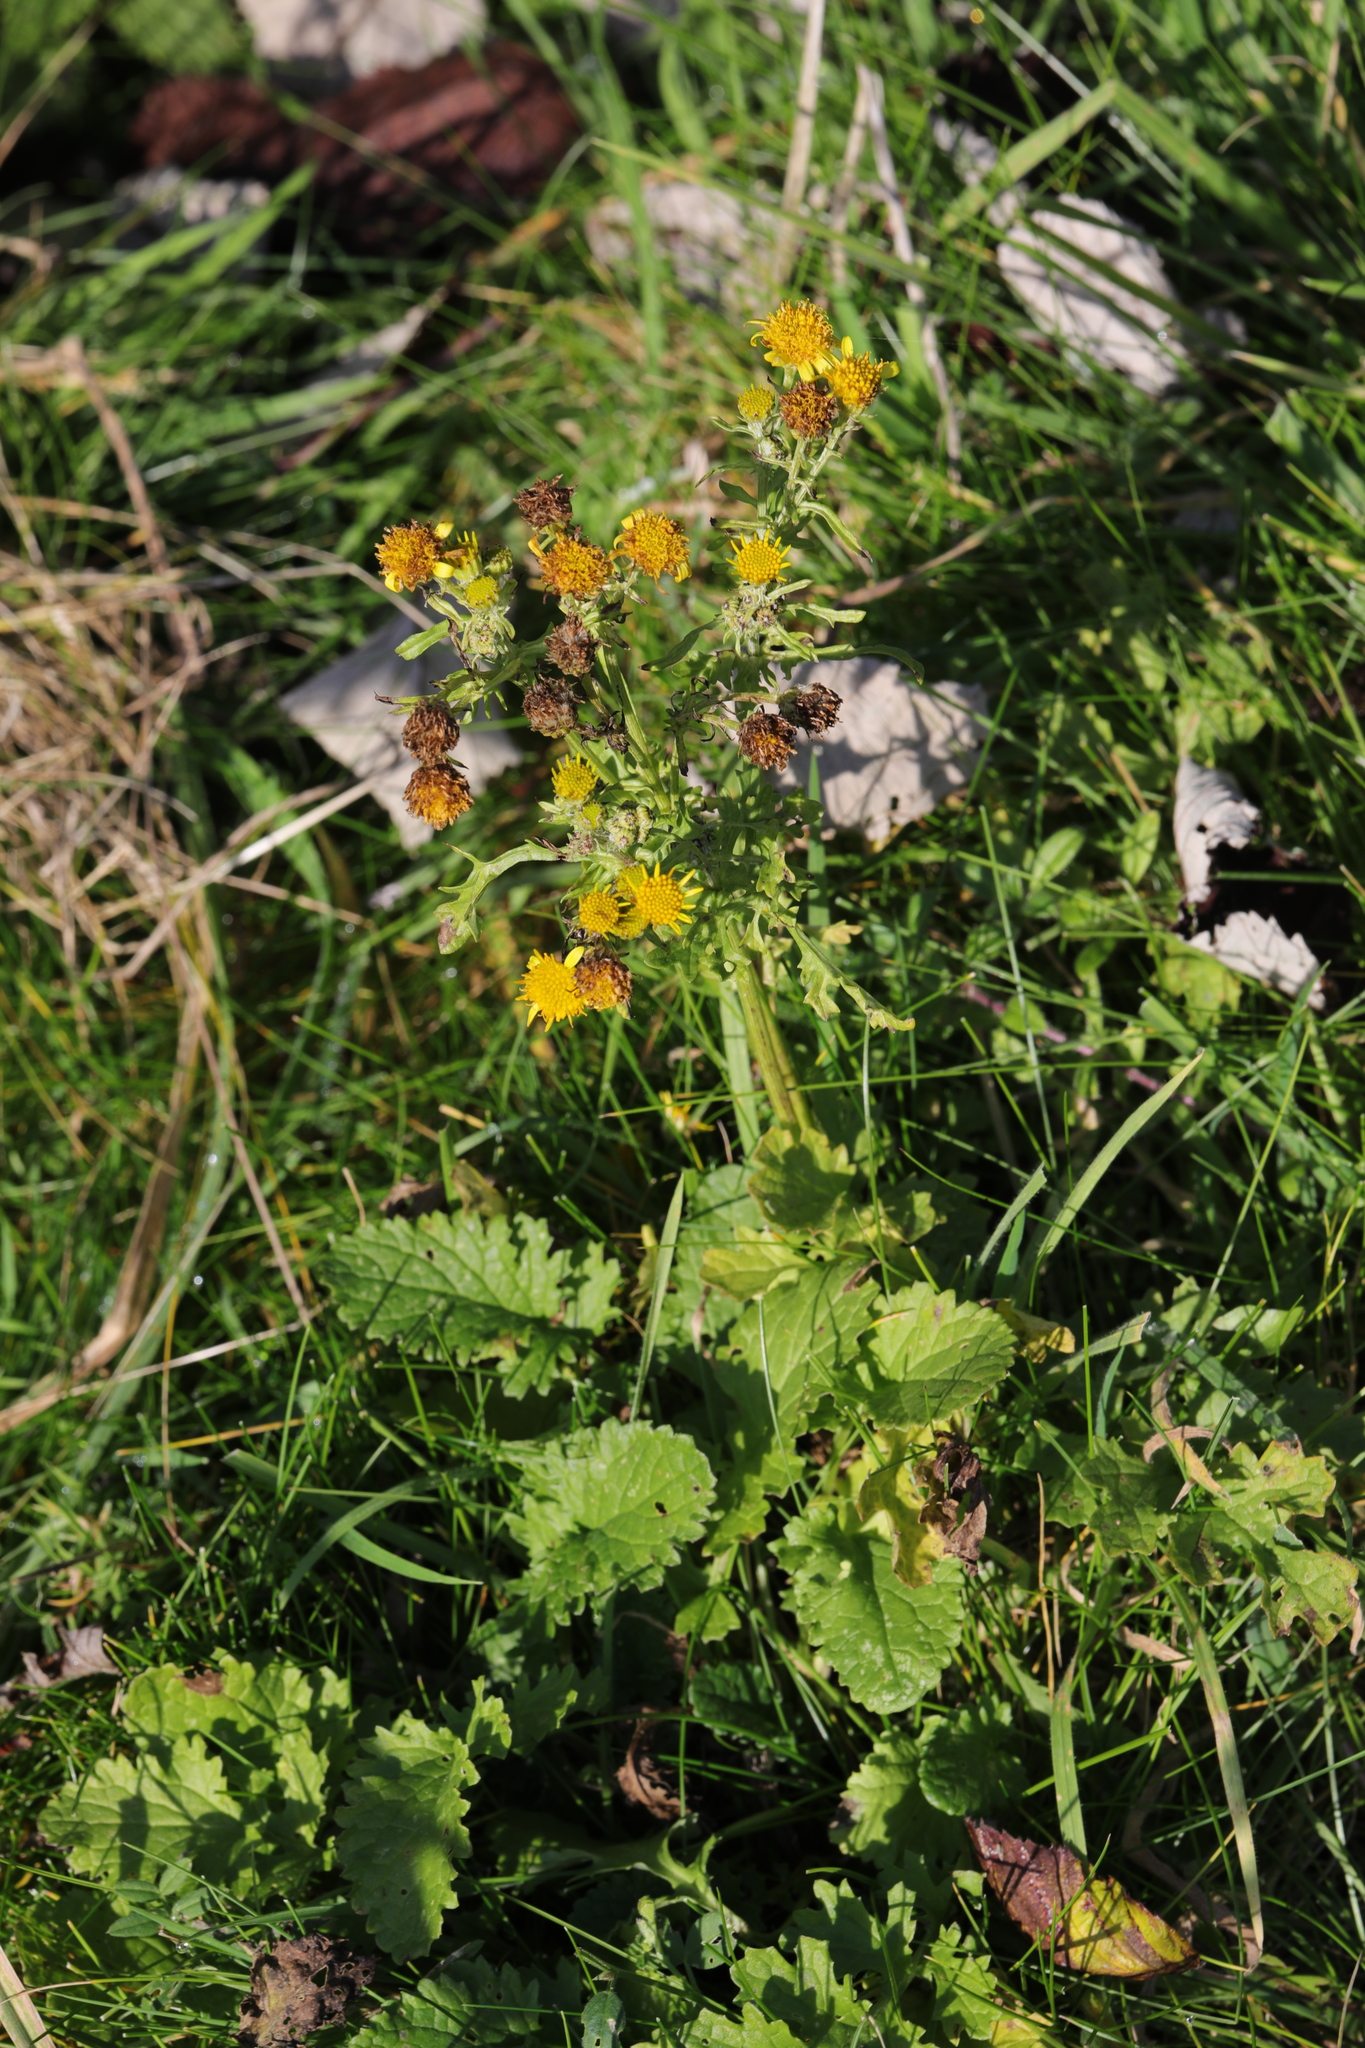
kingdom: Plantae
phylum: Tracheophyta
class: Magnoliopsida
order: Asterales
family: Asteraceae
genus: Jacobaea
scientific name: Jacobaea vulgaris
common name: Stinking willie
